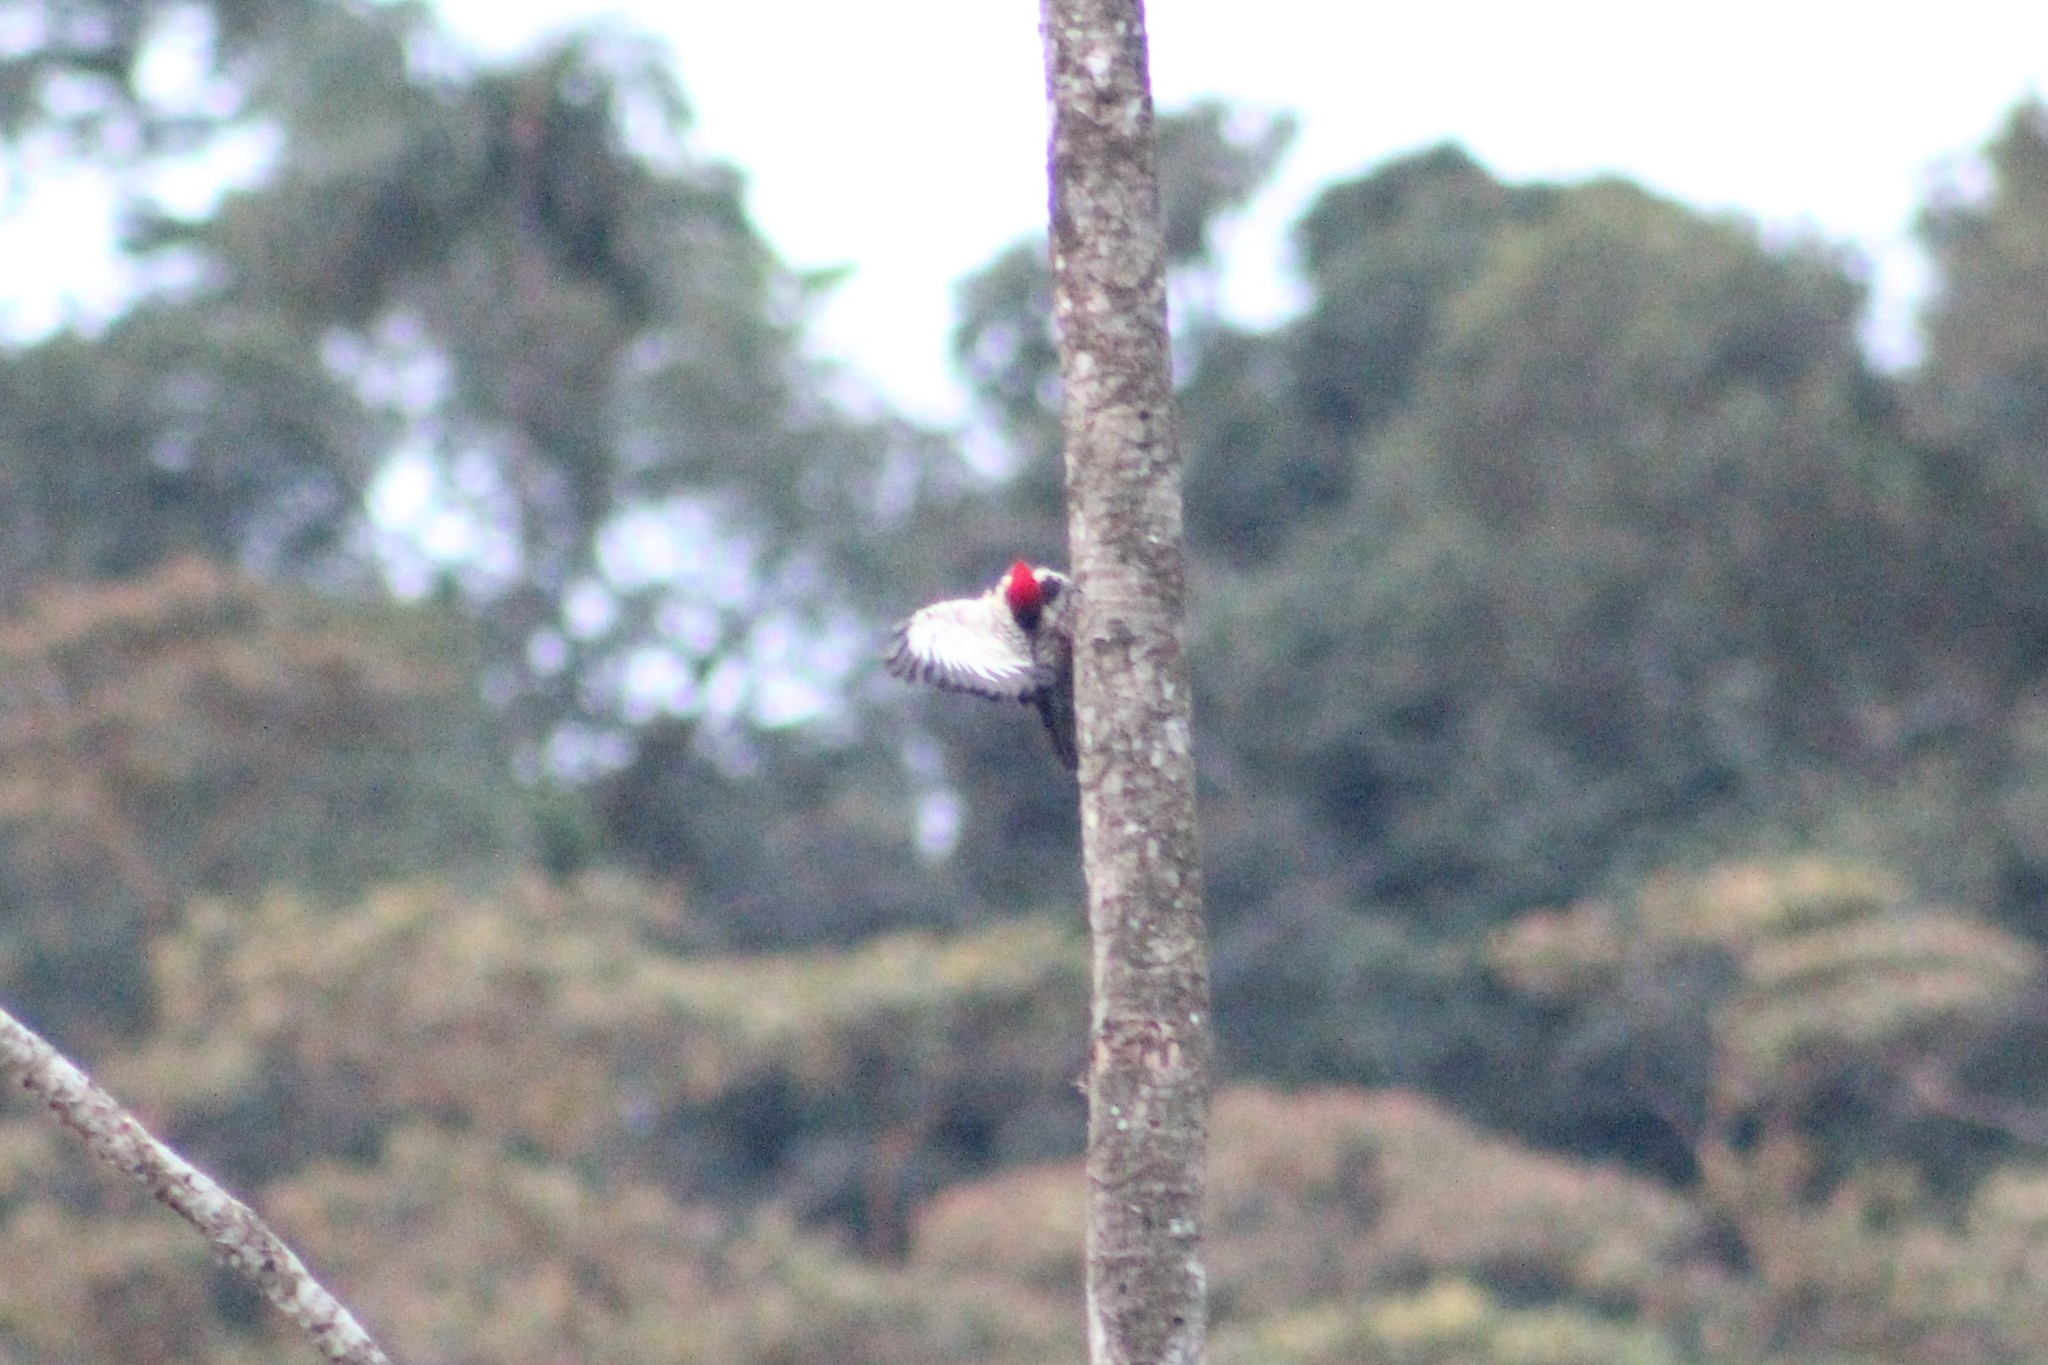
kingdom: Animalia
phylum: Chordata
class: Aves
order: Piciformes
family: Picidae
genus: Dryocopus
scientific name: Dryocopus lineatus
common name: Lineated woodpecker
